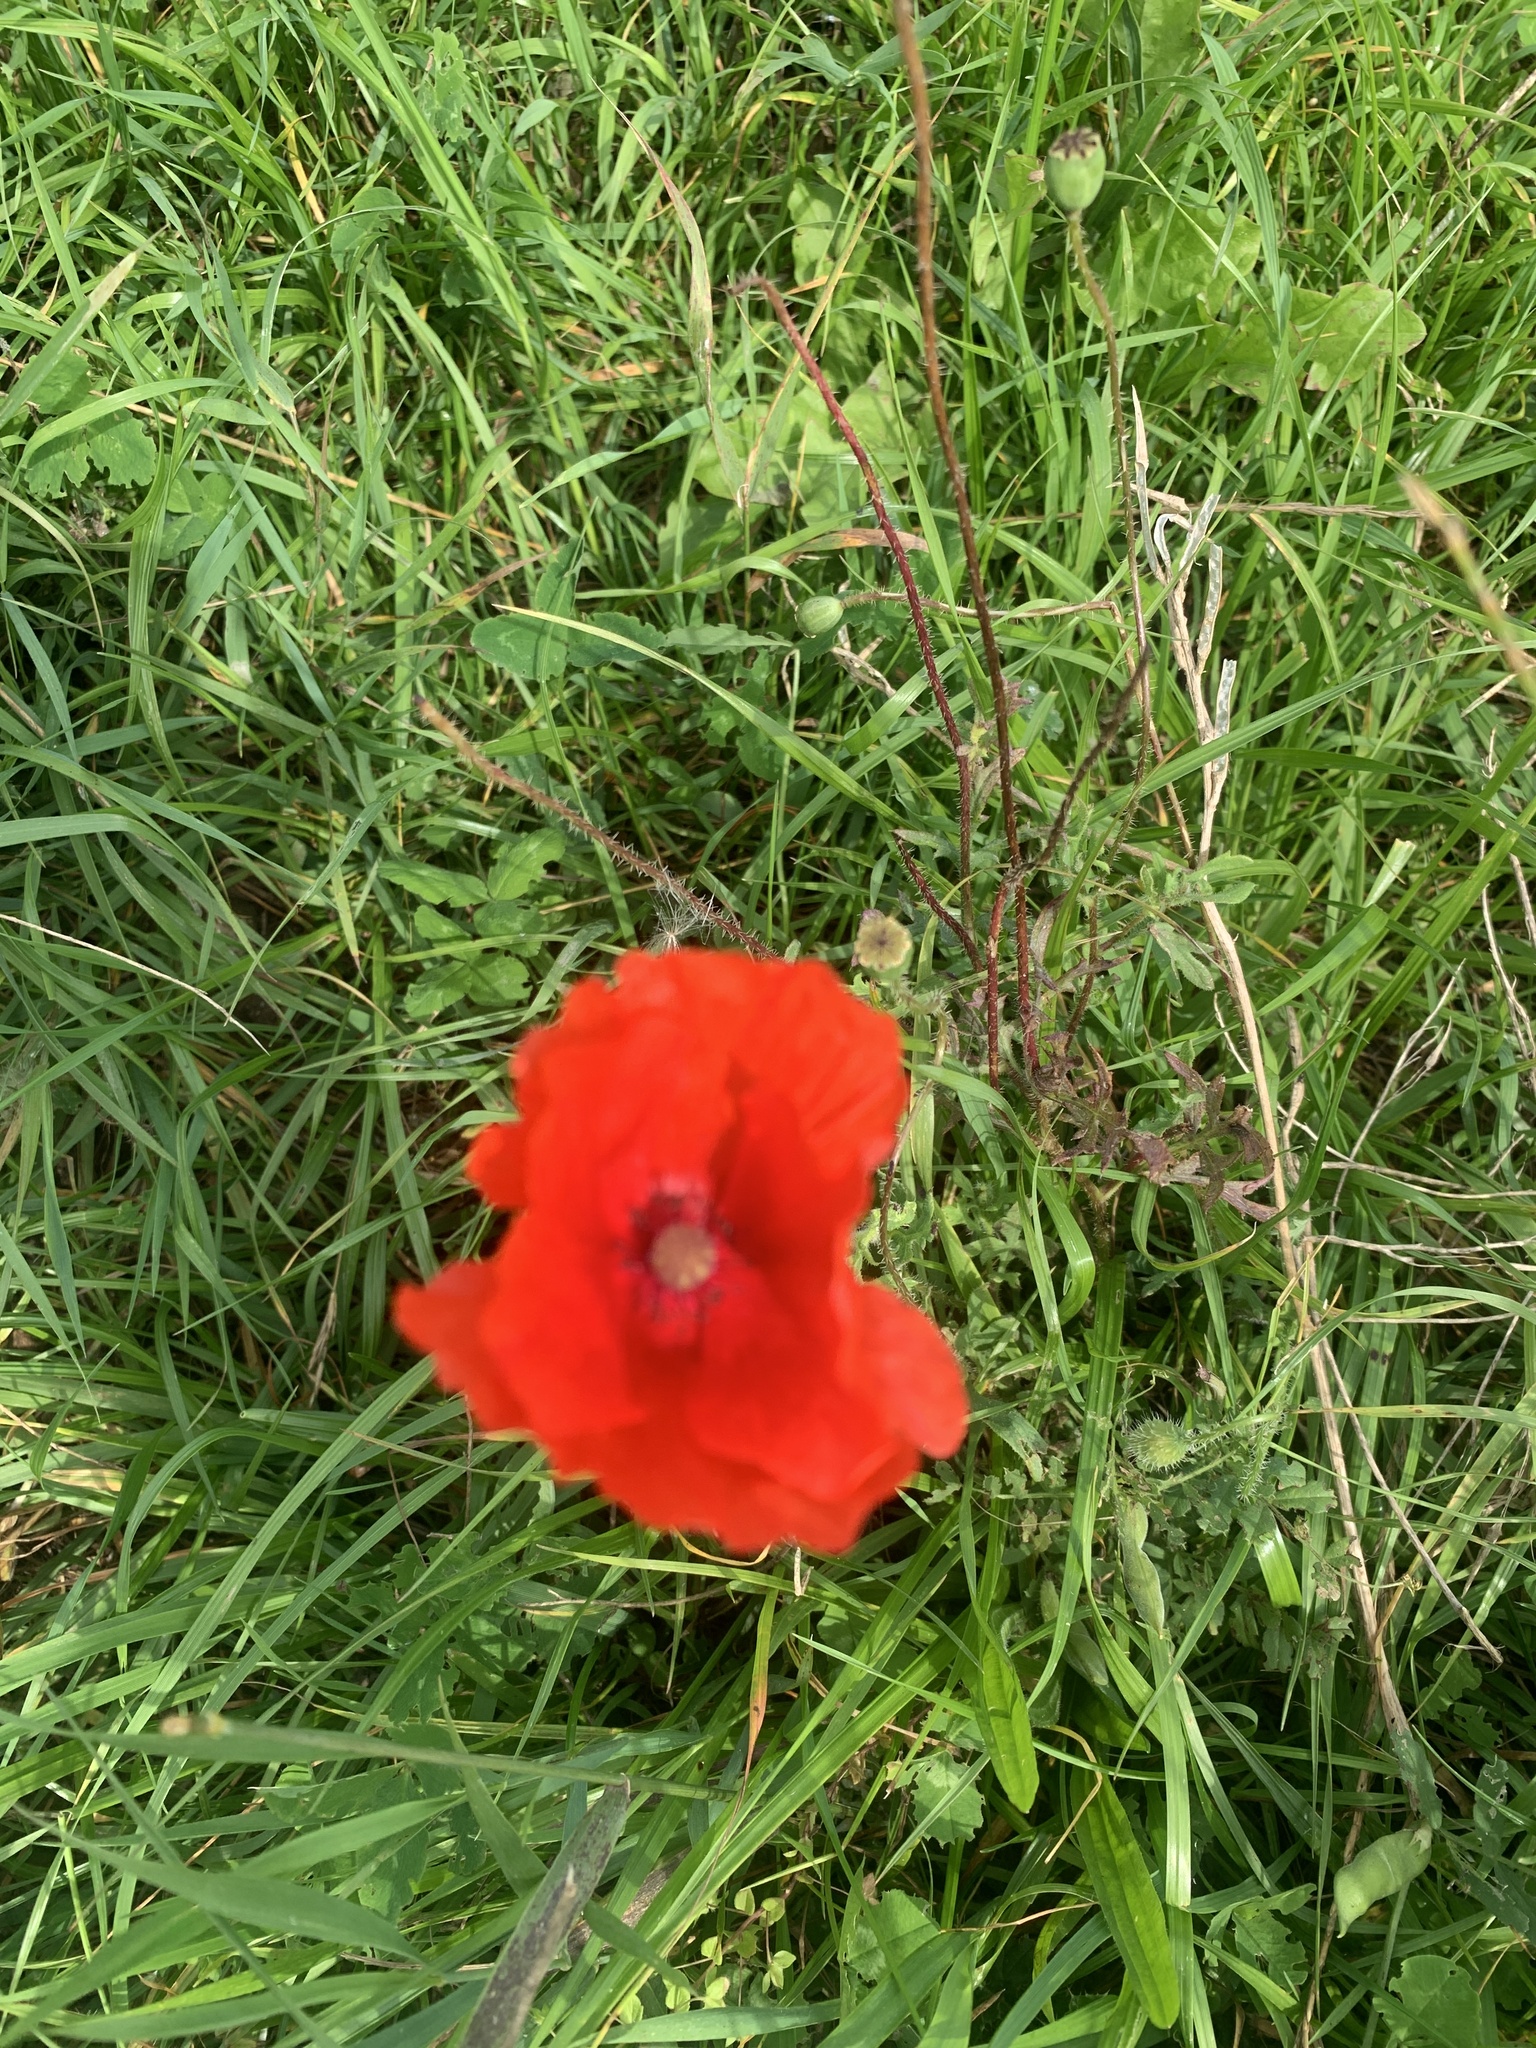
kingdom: Plantae
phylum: Tracheophyta
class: Magnoliopsida
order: Ranunculales
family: Papaveraceae
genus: Papaver
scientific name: Papaver rhoeas
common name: Corn poppy
